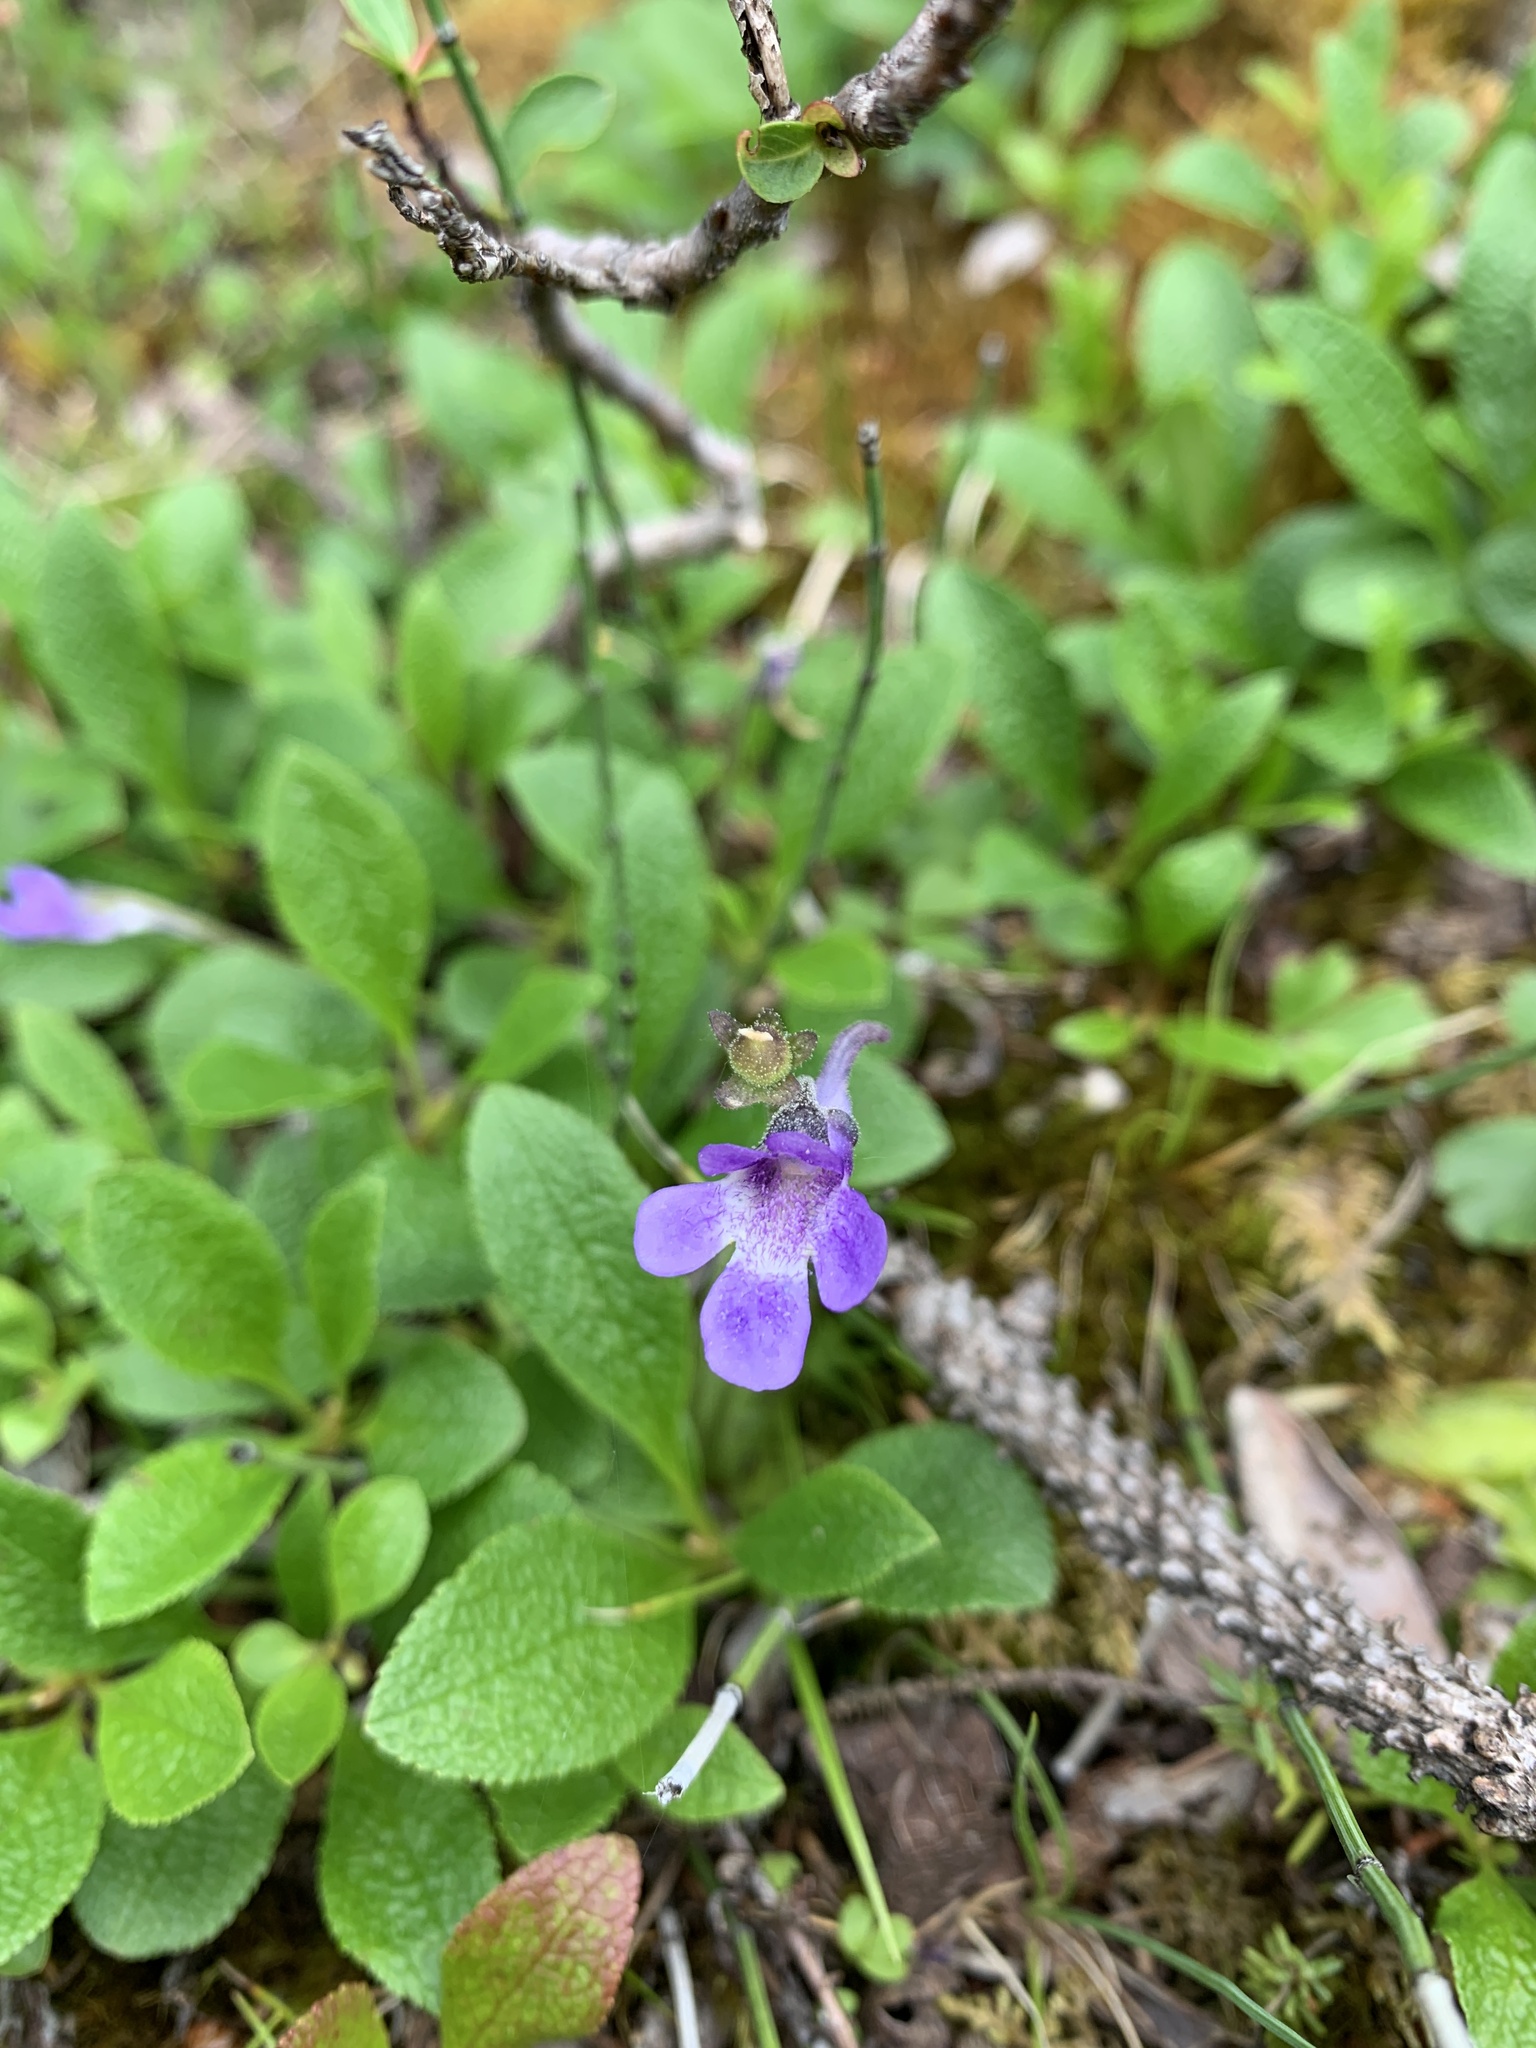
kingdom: Plantae
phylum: Tracheophyta
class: Magnoliopsida
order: Lamiales
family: Lentibulariaceae
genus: Pinguicula
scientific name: Pinguicula vulgaris
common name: Common butterwort
